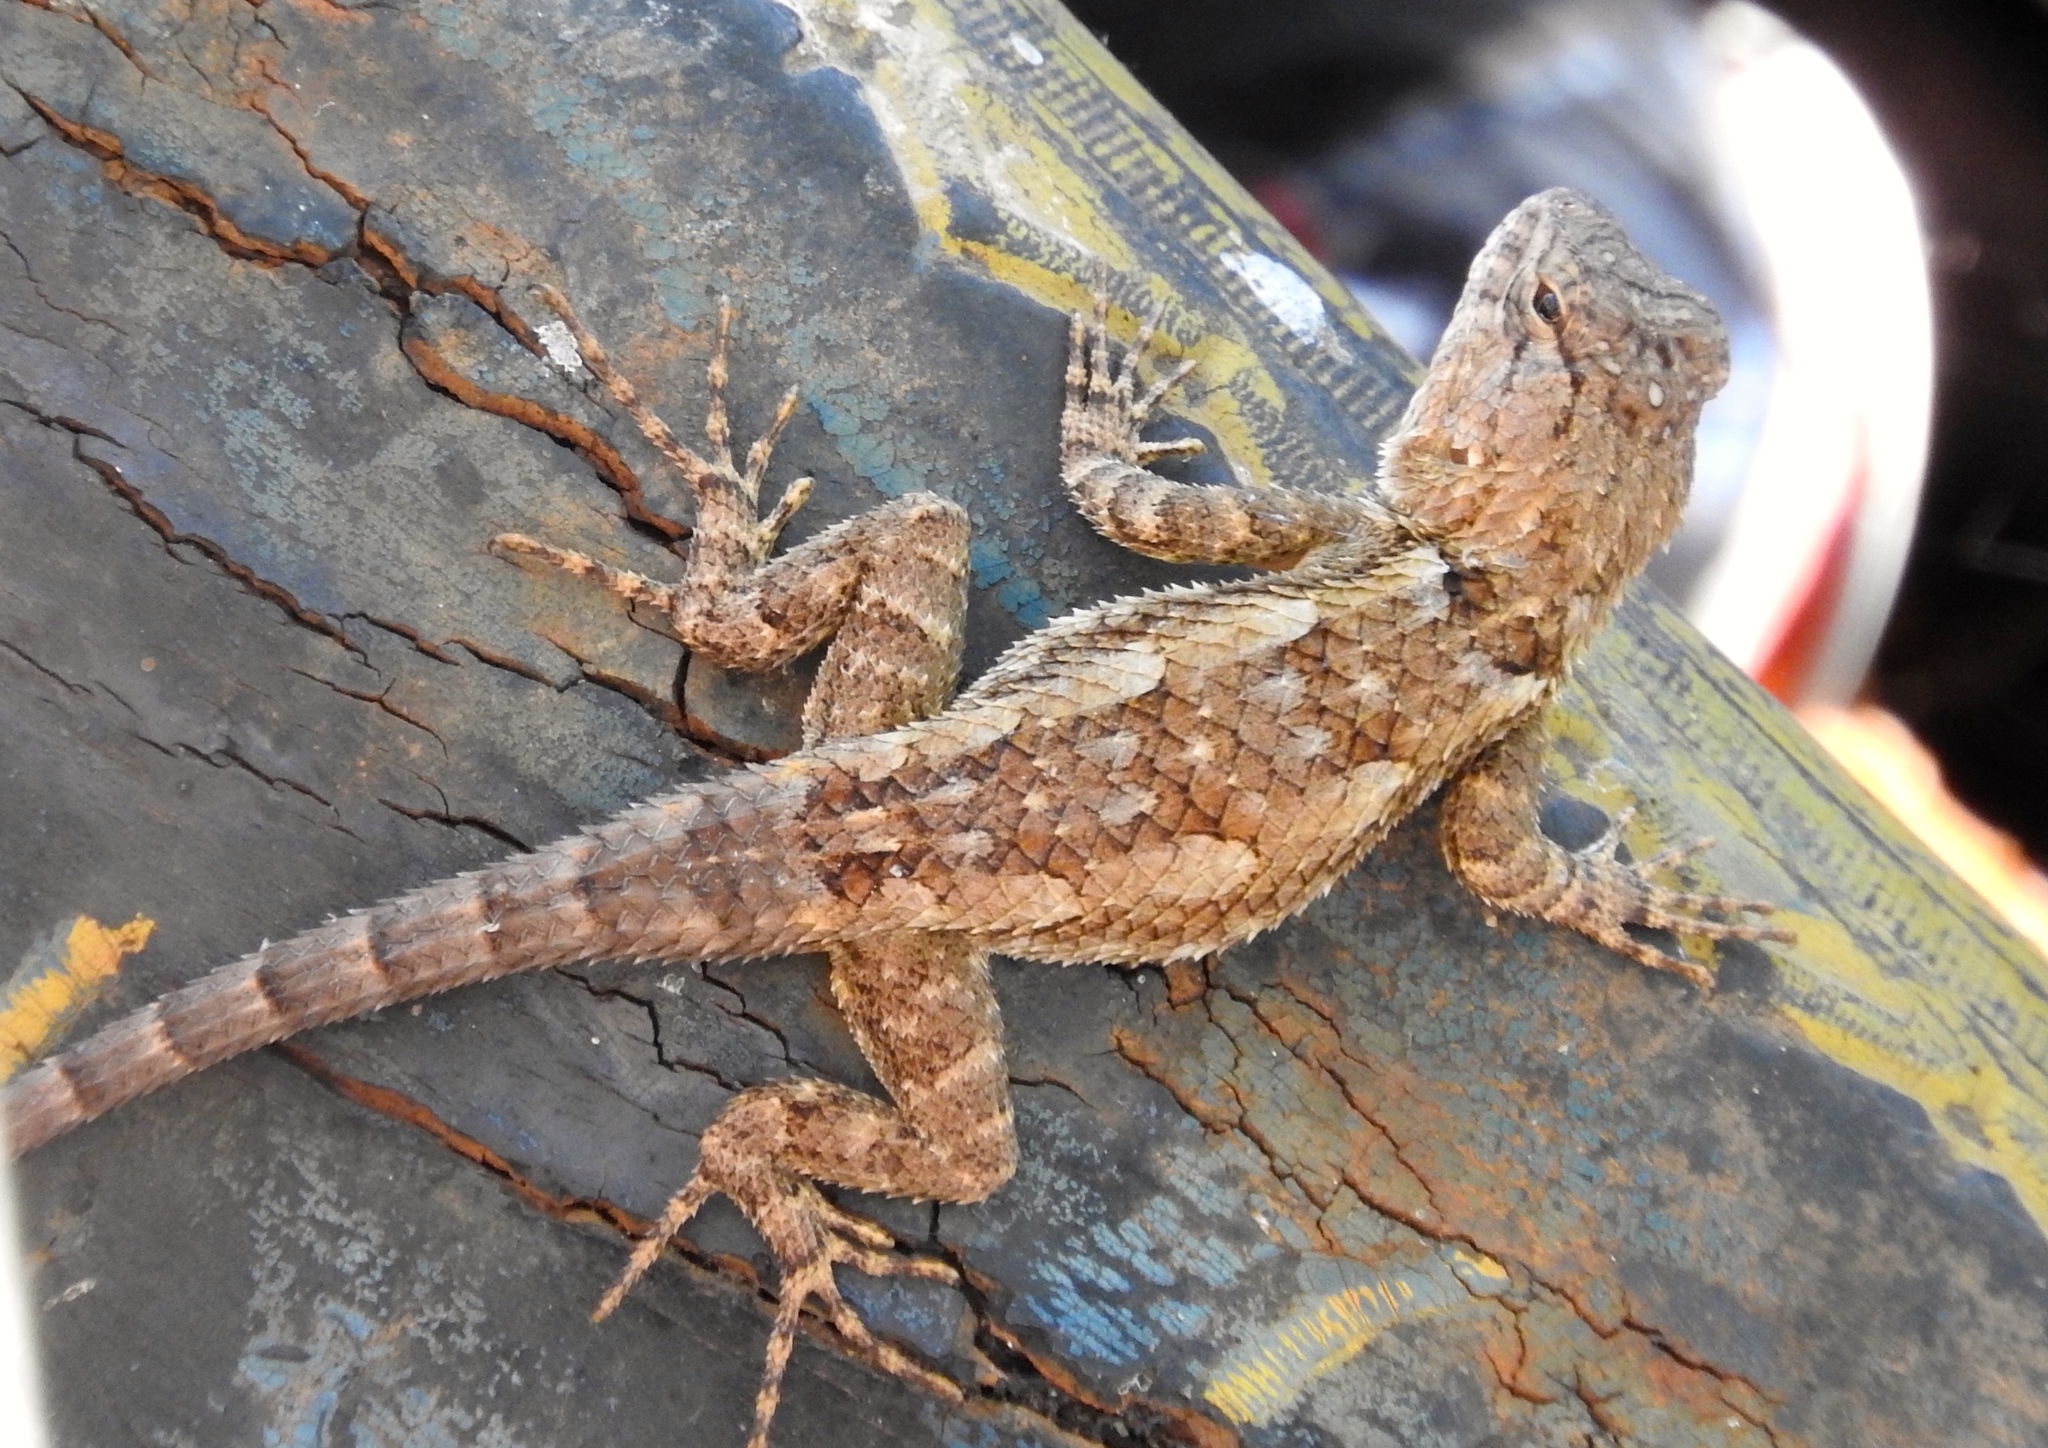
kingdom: Animalia
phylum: Chordata
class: Squamata
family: Phrynosomatidae
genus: Sceloporus
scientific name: Sceloporus clarkii
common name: Clark's spiny lizard
